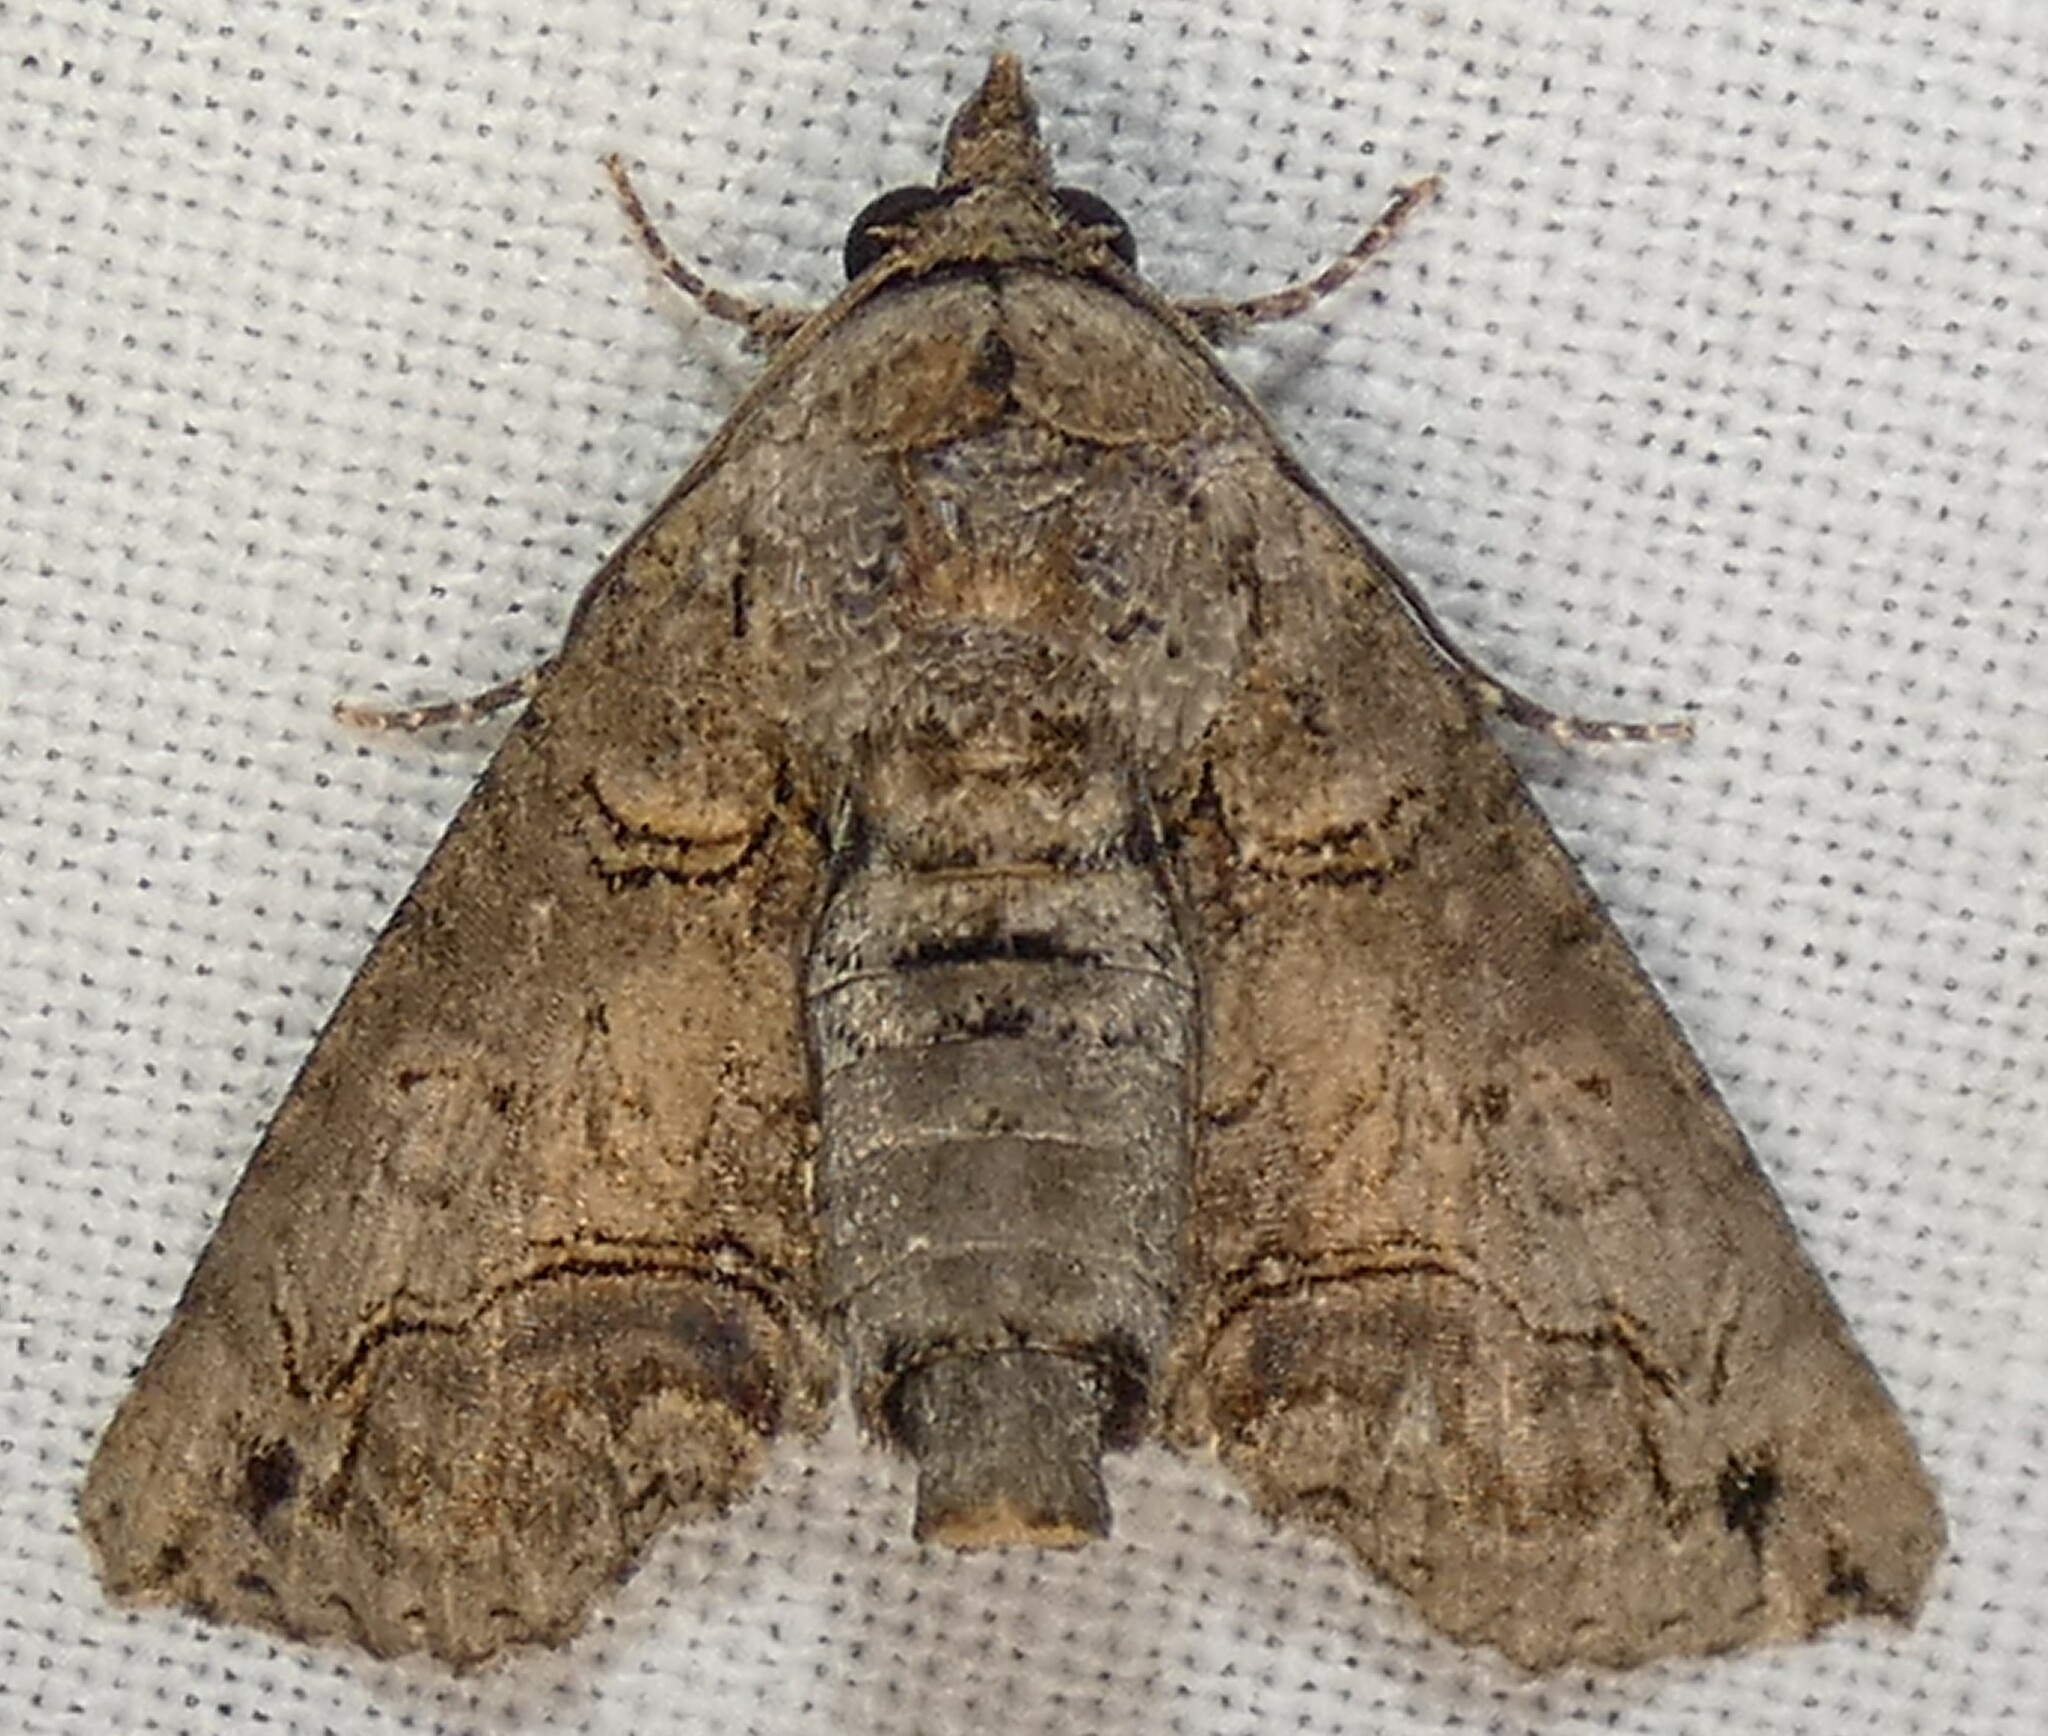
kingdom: Animalia
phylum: Arthropoda
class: Insecta
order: Lepidoptera
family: Euteliidae
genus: Paectes
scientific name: Paectes abrostoloides
